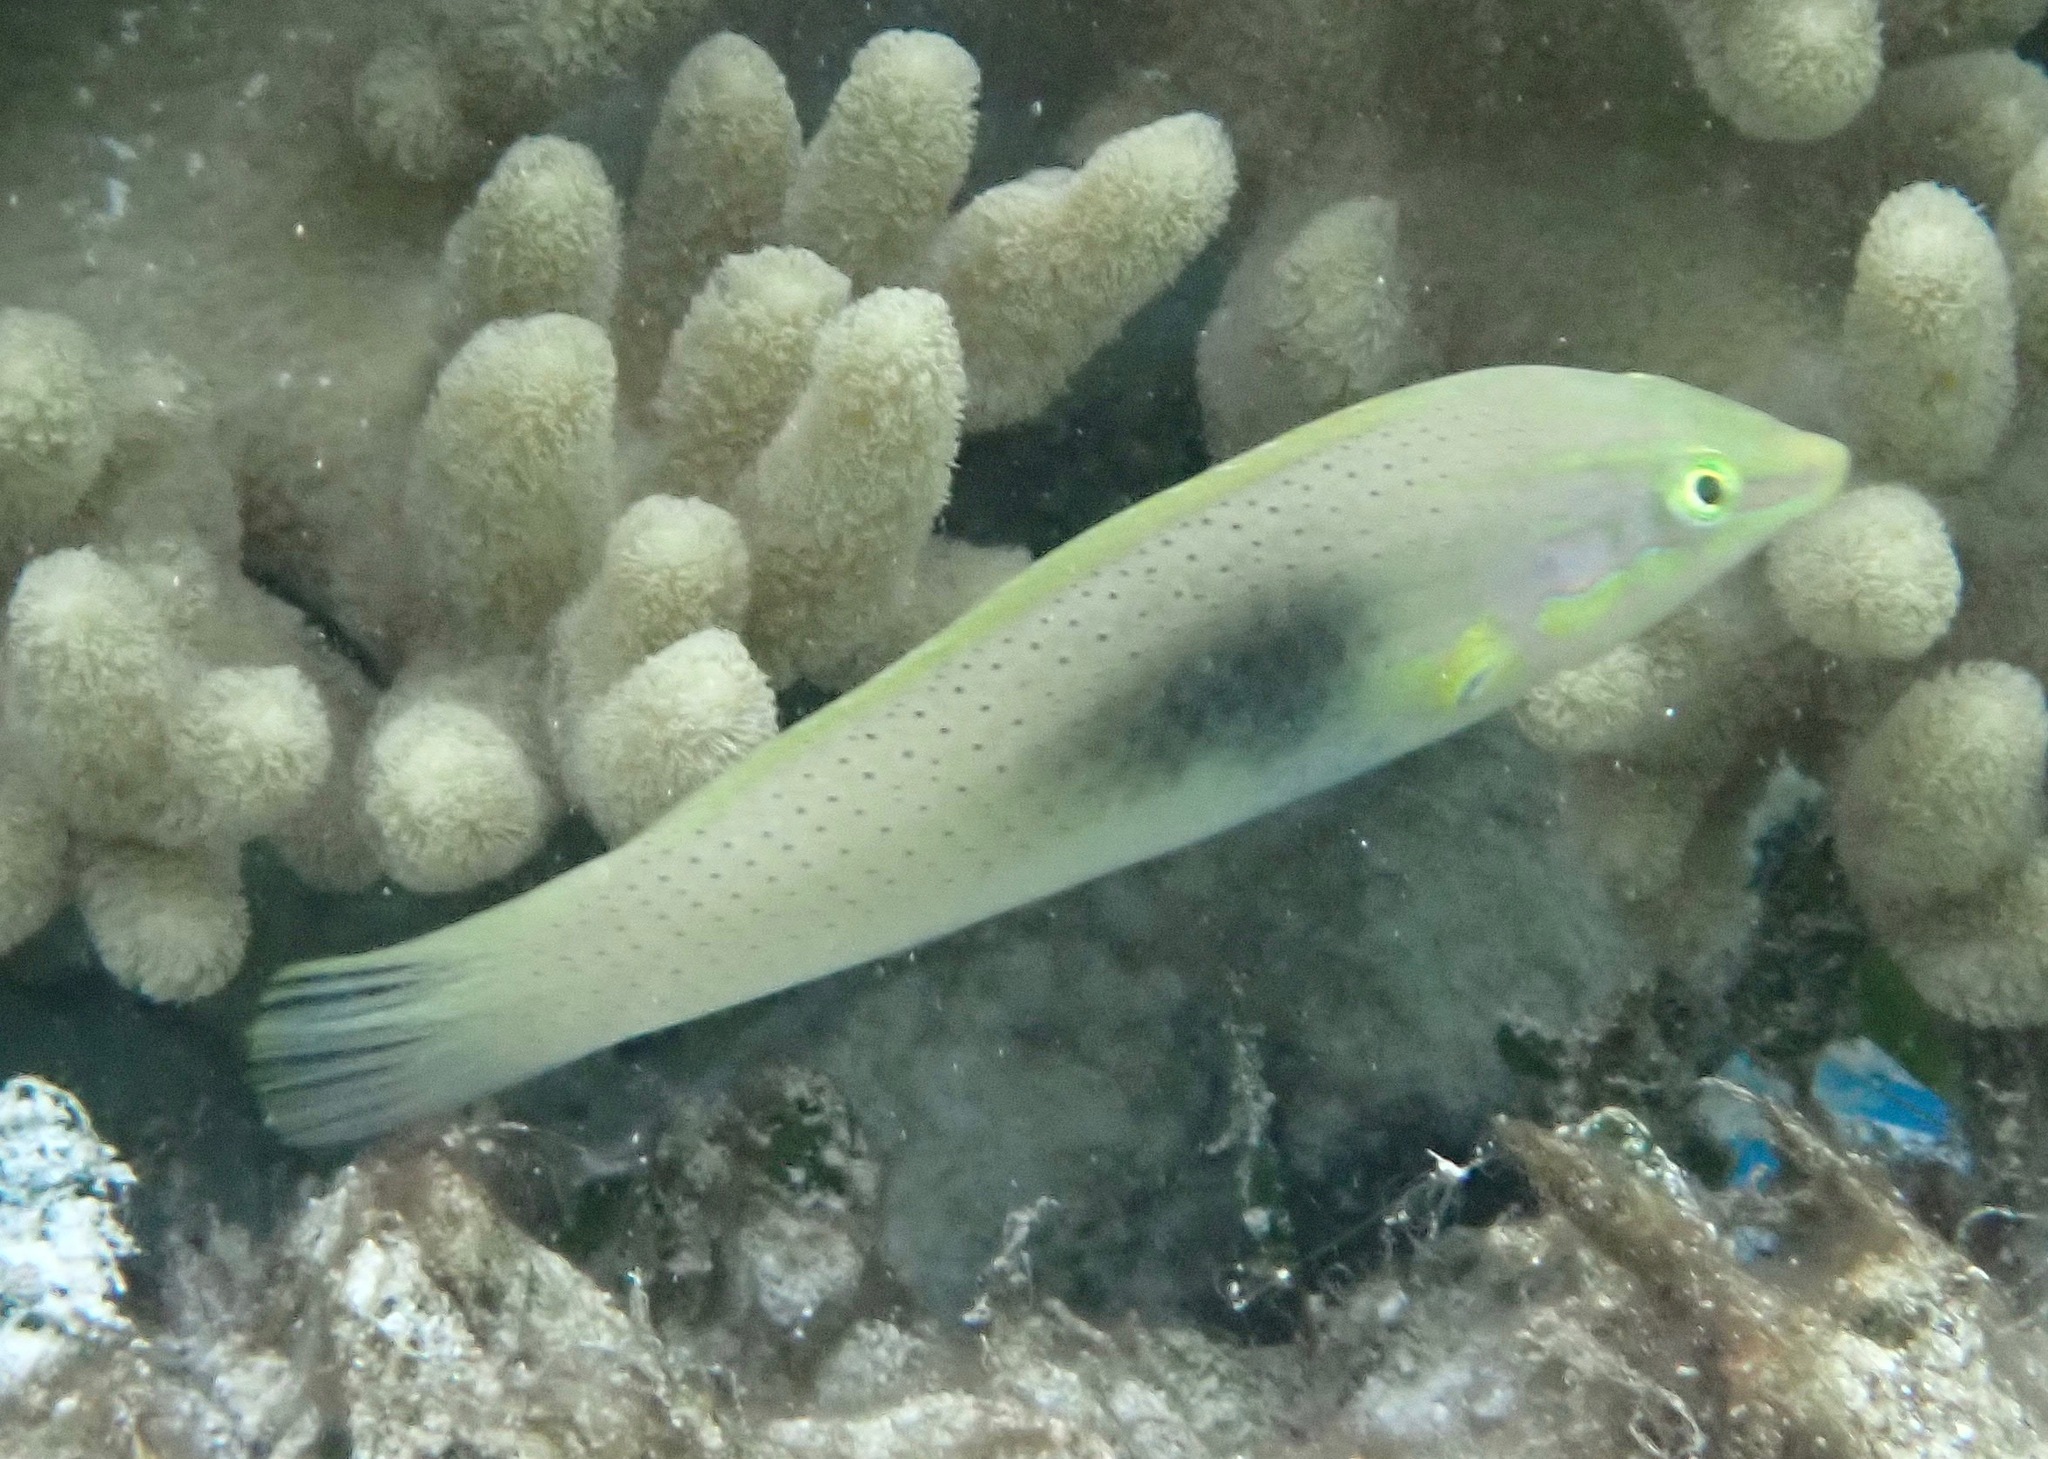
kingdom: Animalia
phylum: Chordata
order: Perciformes
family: Labridae
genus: Halichoeres
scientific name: Halichoeres chloropterus
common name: Pastel-green wrasse
